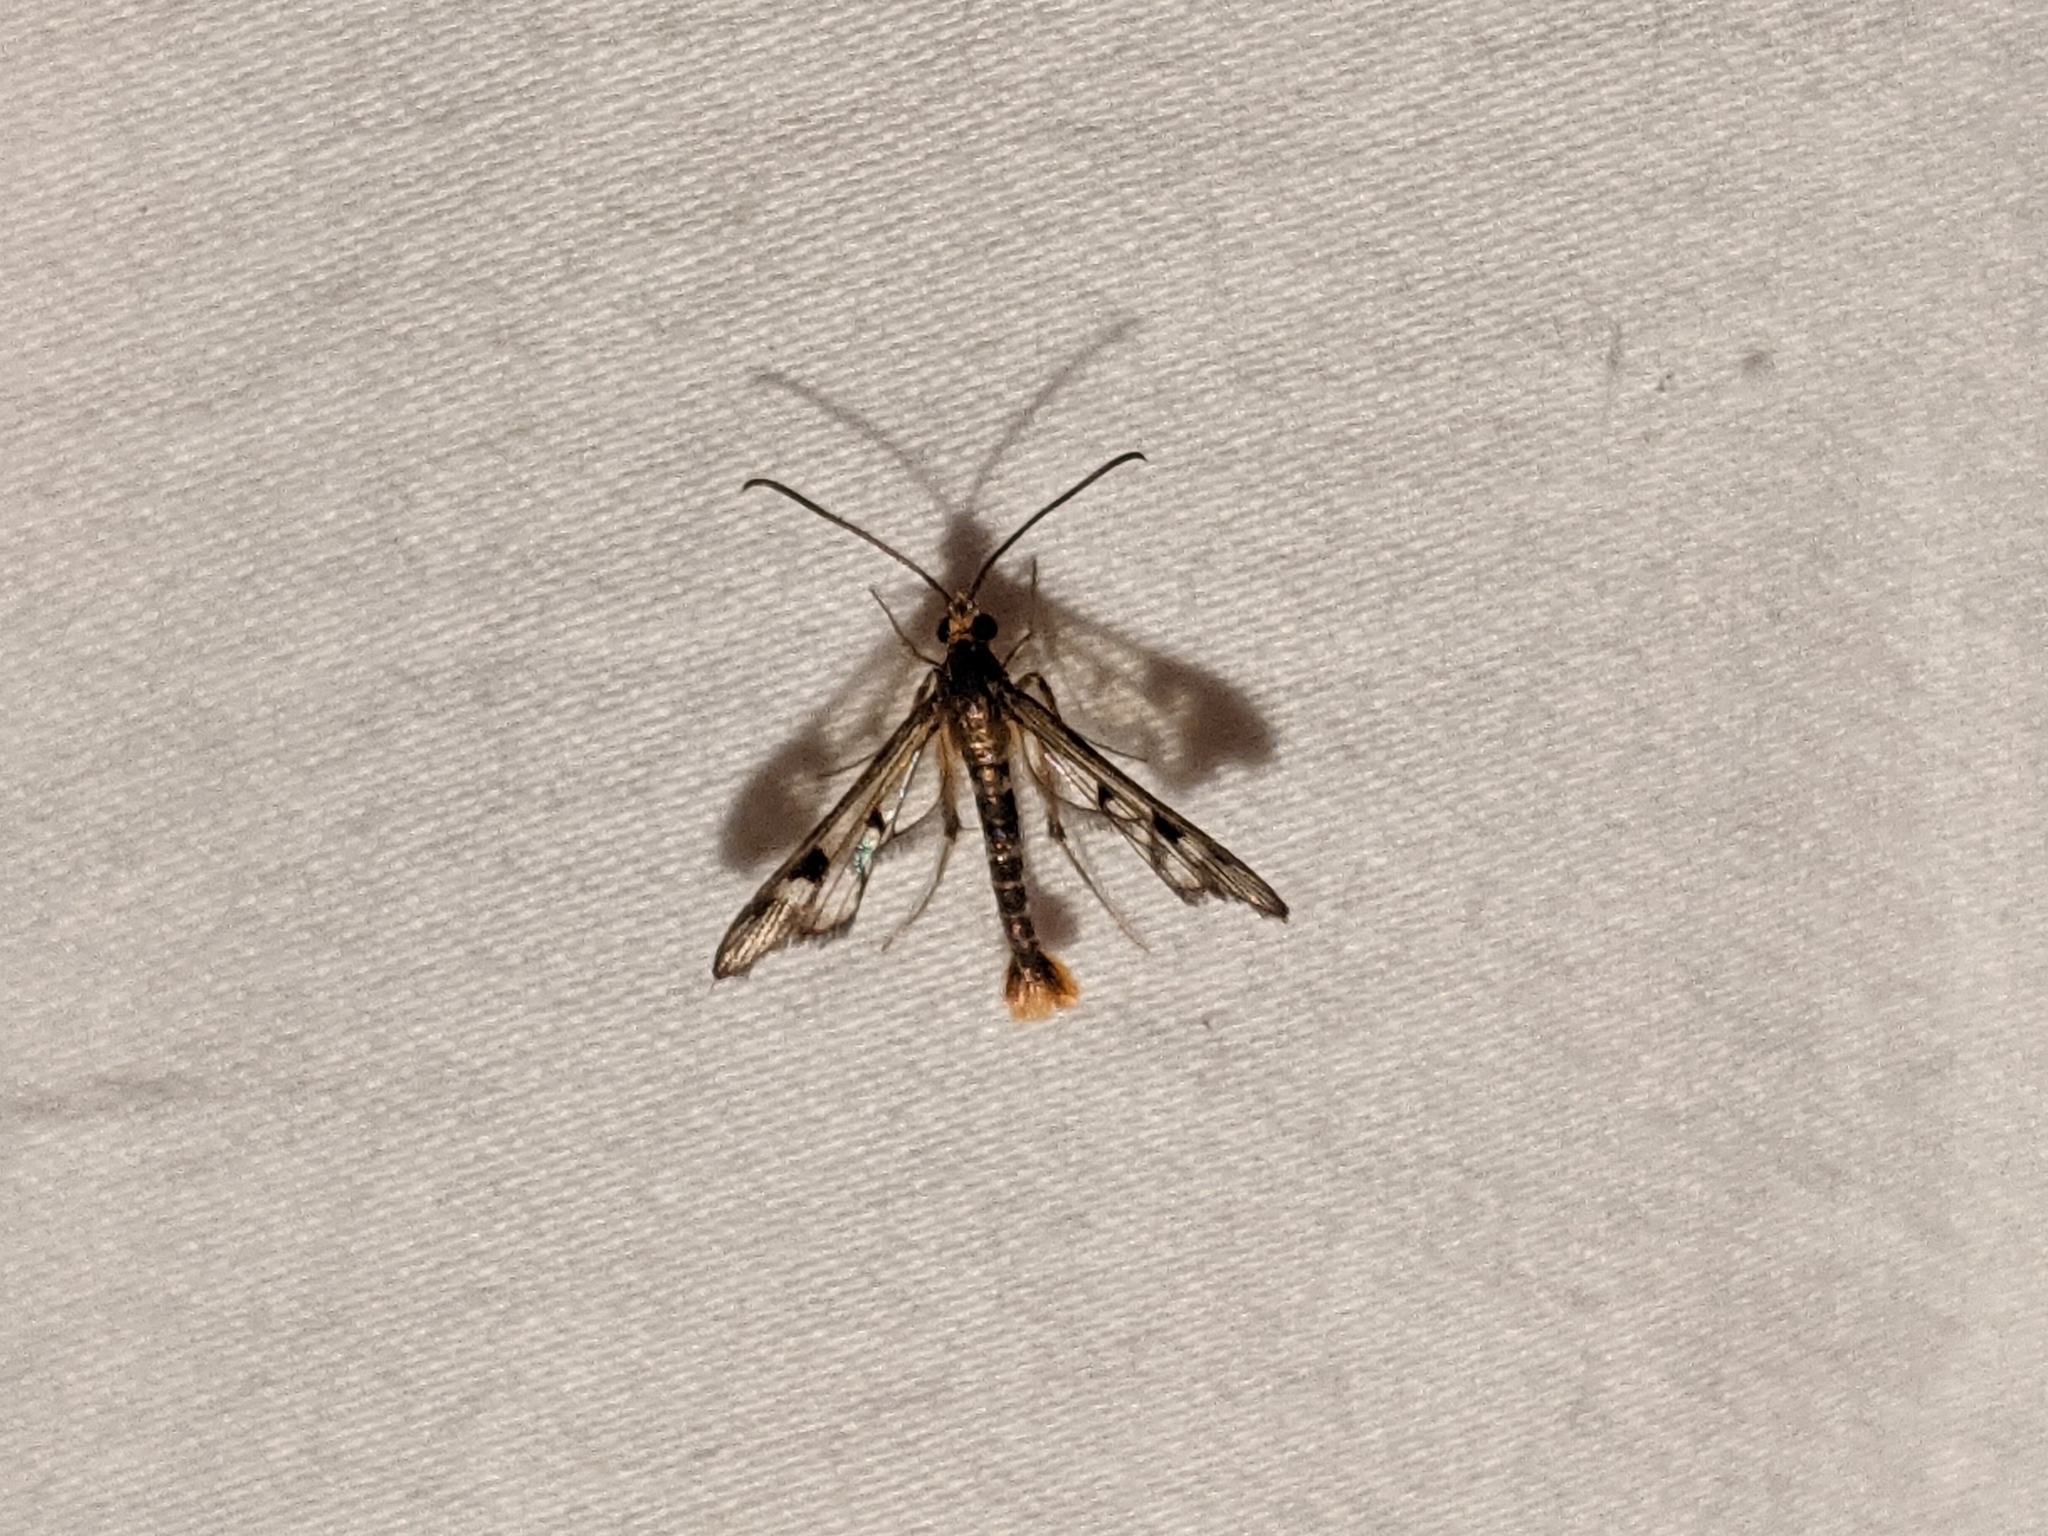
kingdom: Animalia
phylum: Arthropoda
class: Insecta
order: Lepidoptera
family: Sesiidae
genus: Synanthedon
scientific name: Synanthedon acerni
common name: Maple callus borer moth
